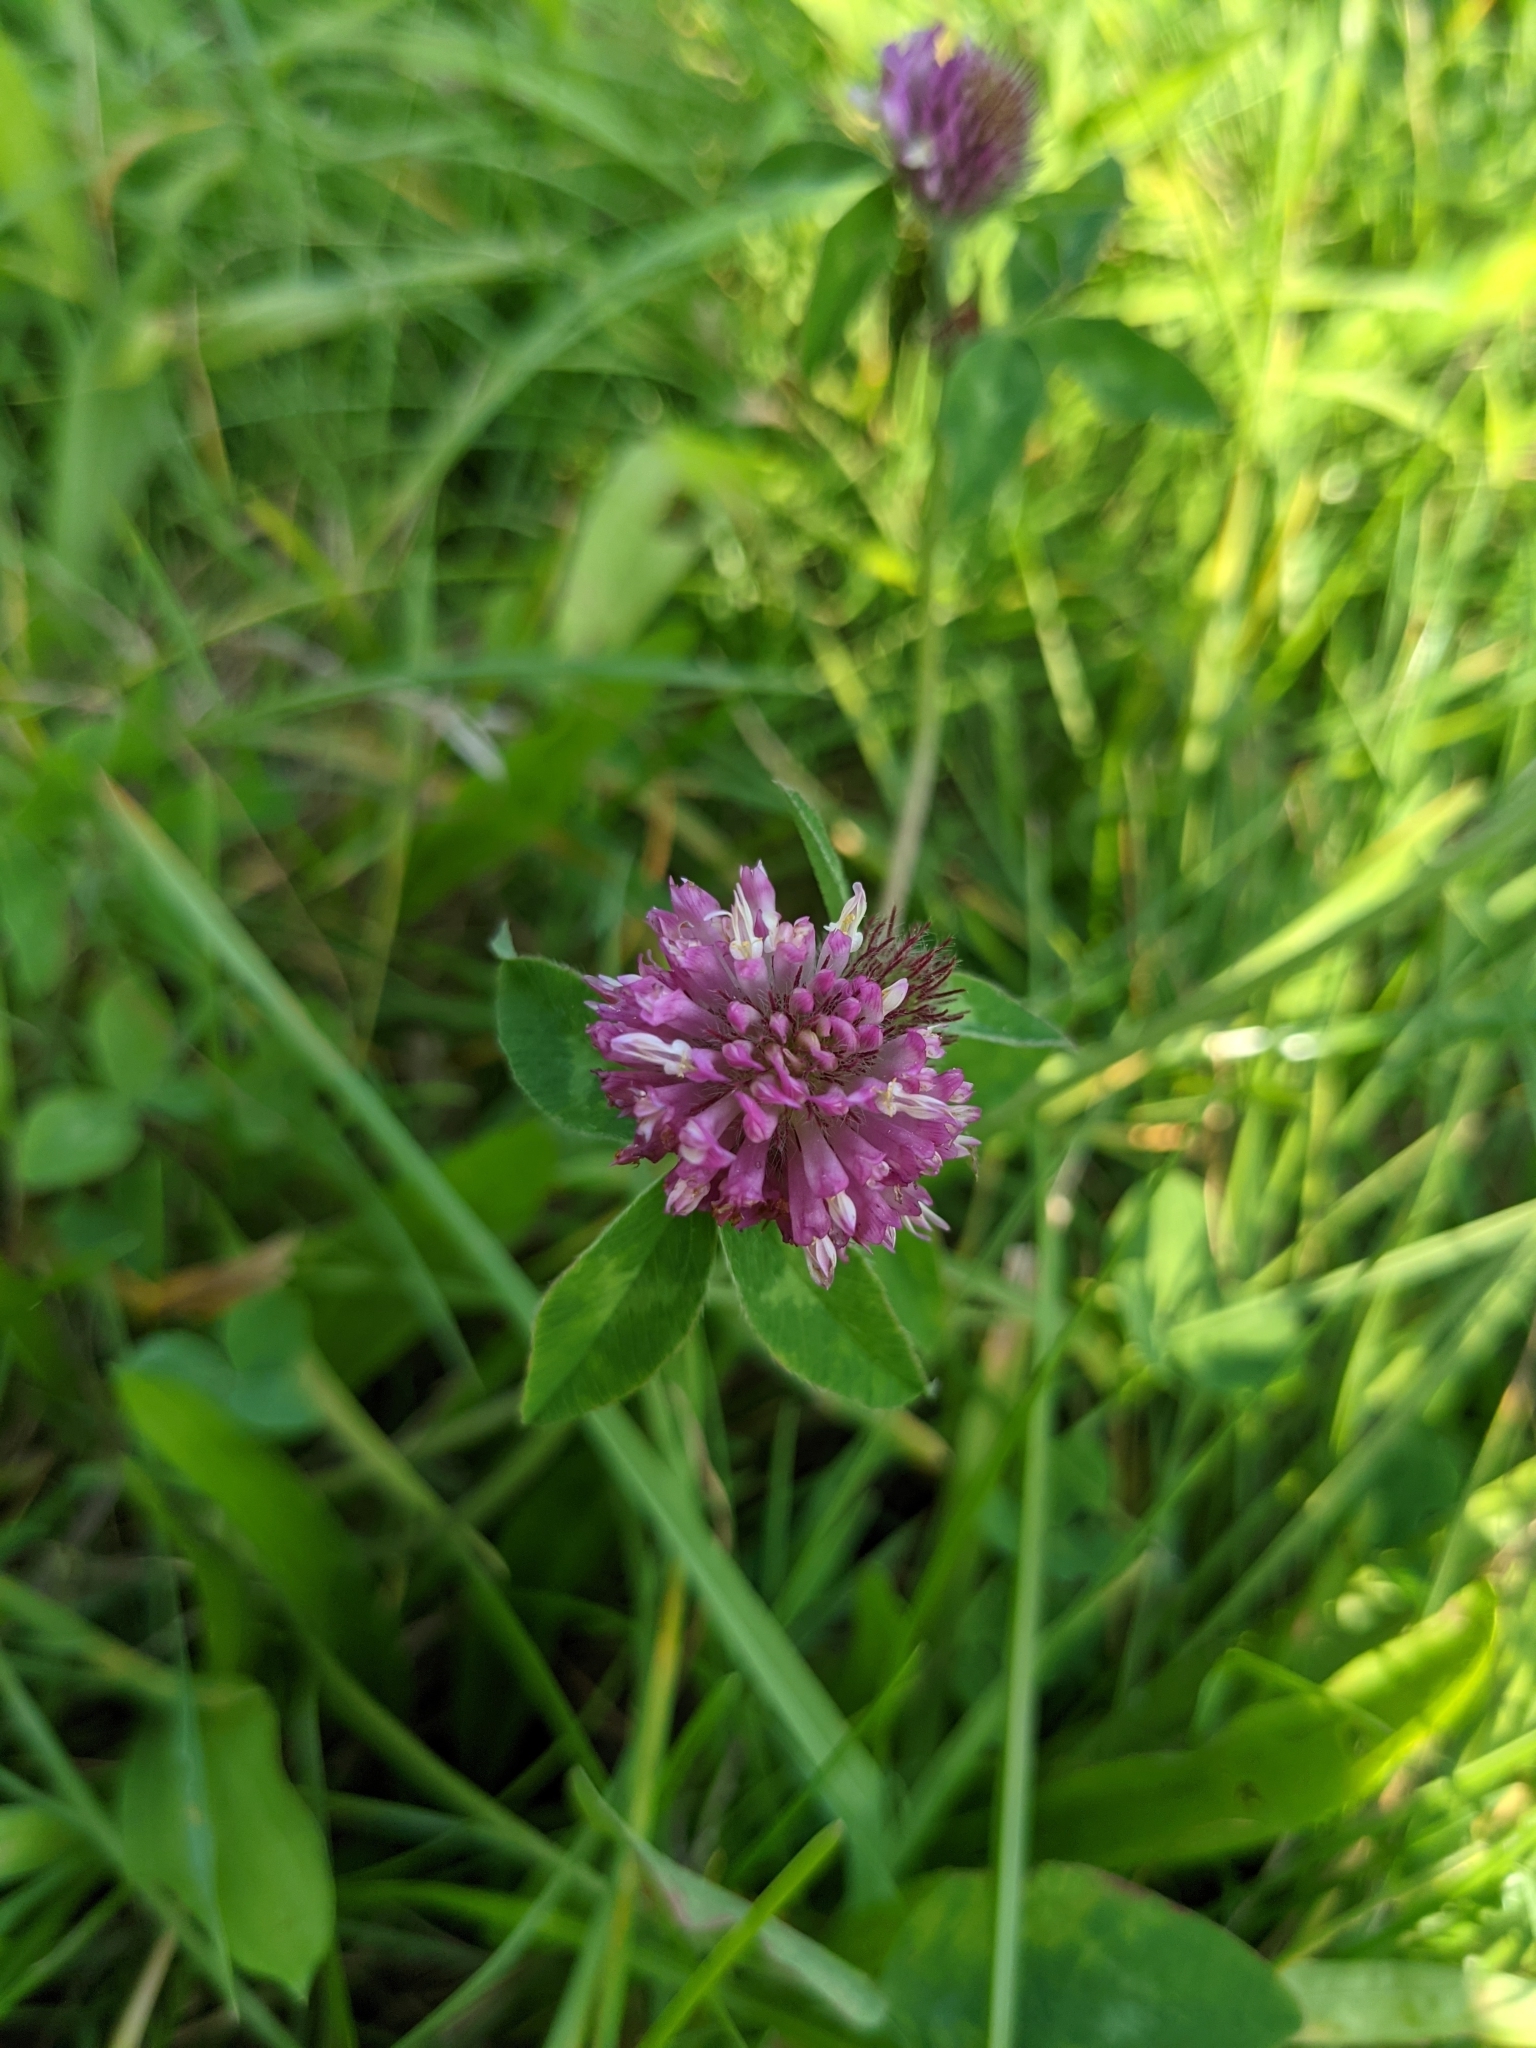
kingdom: Plantae
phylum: Tracheophyta
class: Magnoliopsida
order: Fabales
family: Fabaceae
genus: Trifolium
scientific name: Trifolium pratense
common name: Red clover
